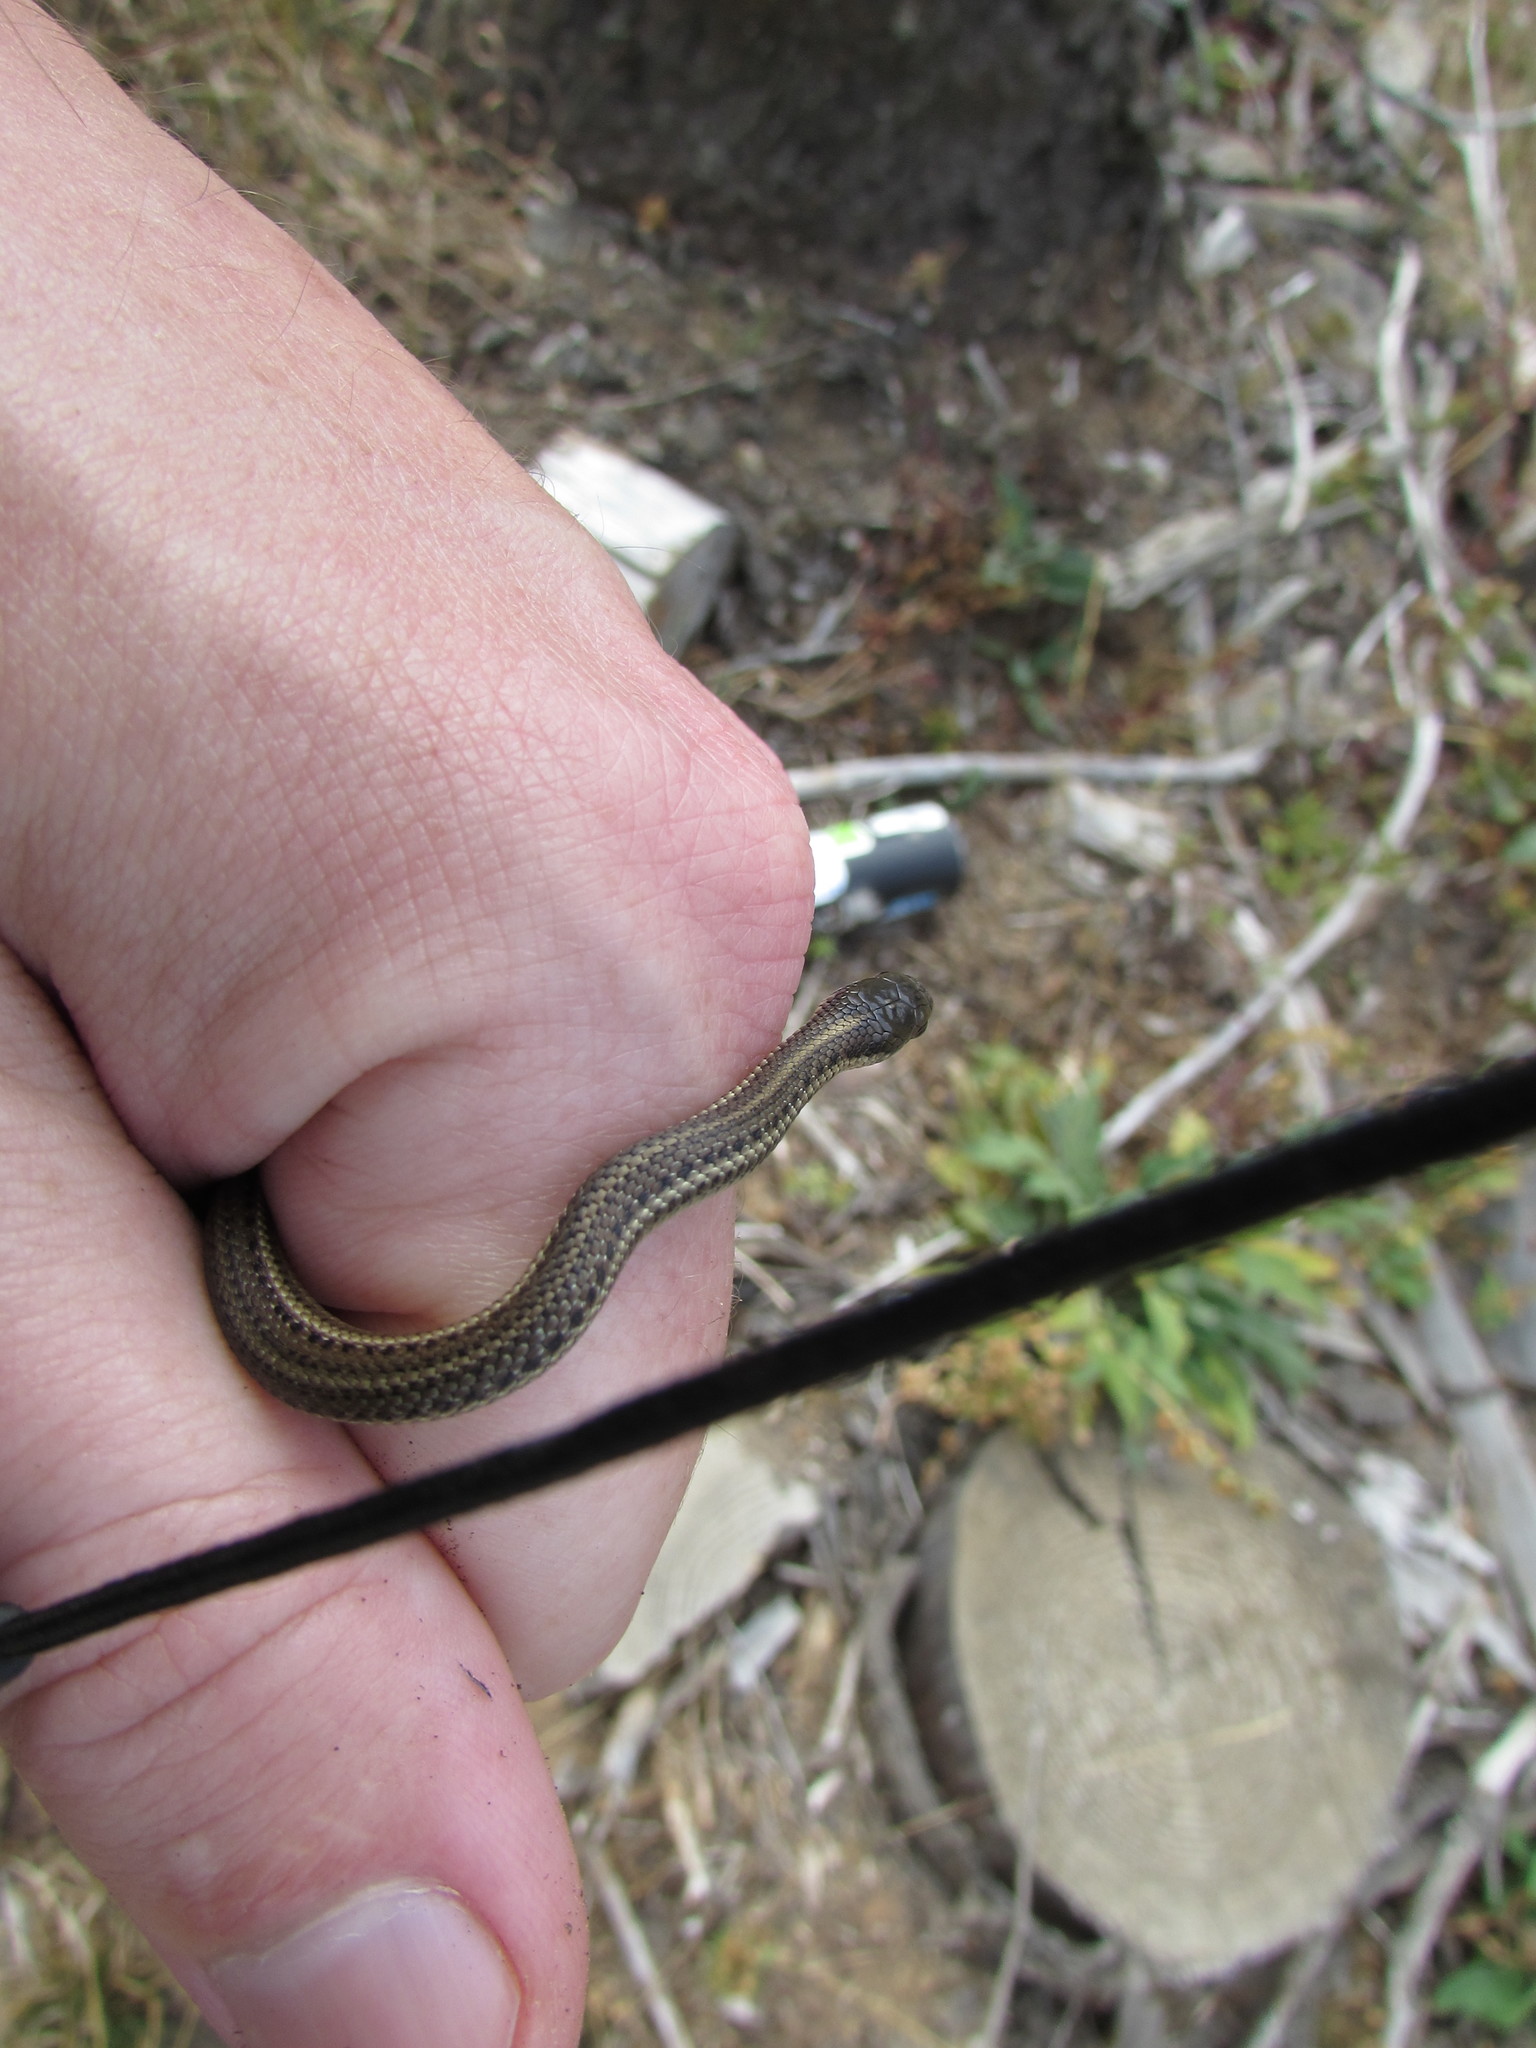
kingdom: Animalia
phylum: Chordata
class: Squamata
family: Colubridae
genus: Thamnophis
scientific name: Thamnophis ordinoides
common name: Northwestern garter snake
